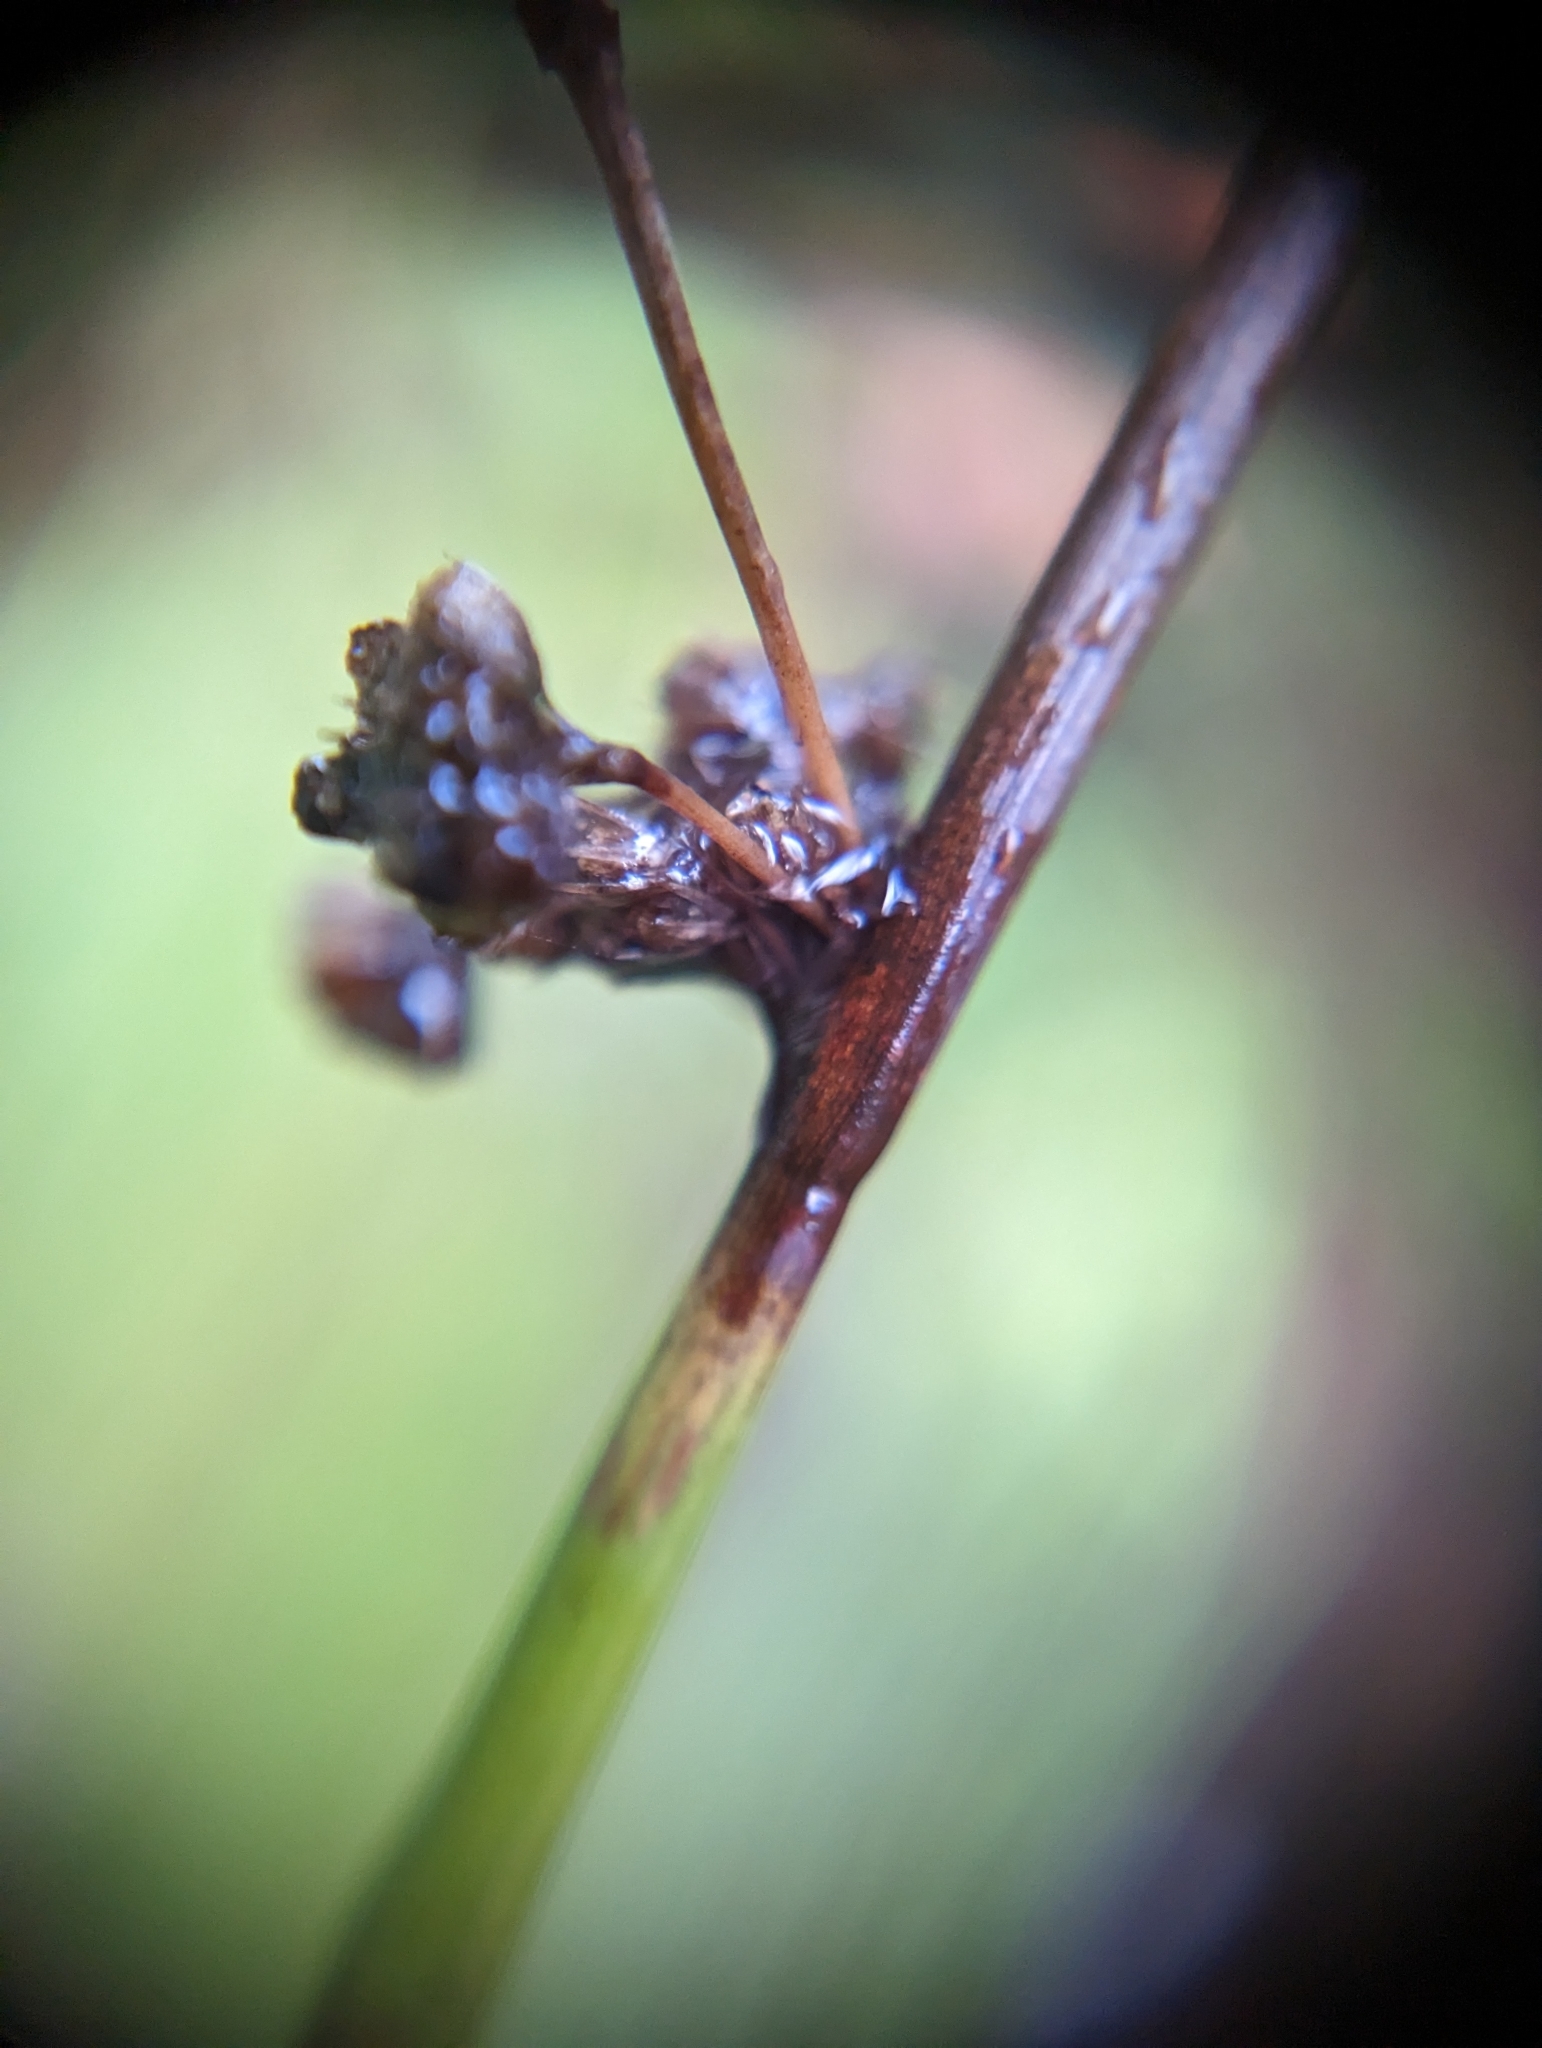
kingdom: Plantae
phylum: Tracheophyta
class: Liliopsida
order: Poales
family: Juncaceae
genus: Juncus
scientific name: Juncus effusus
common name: Soft rush
